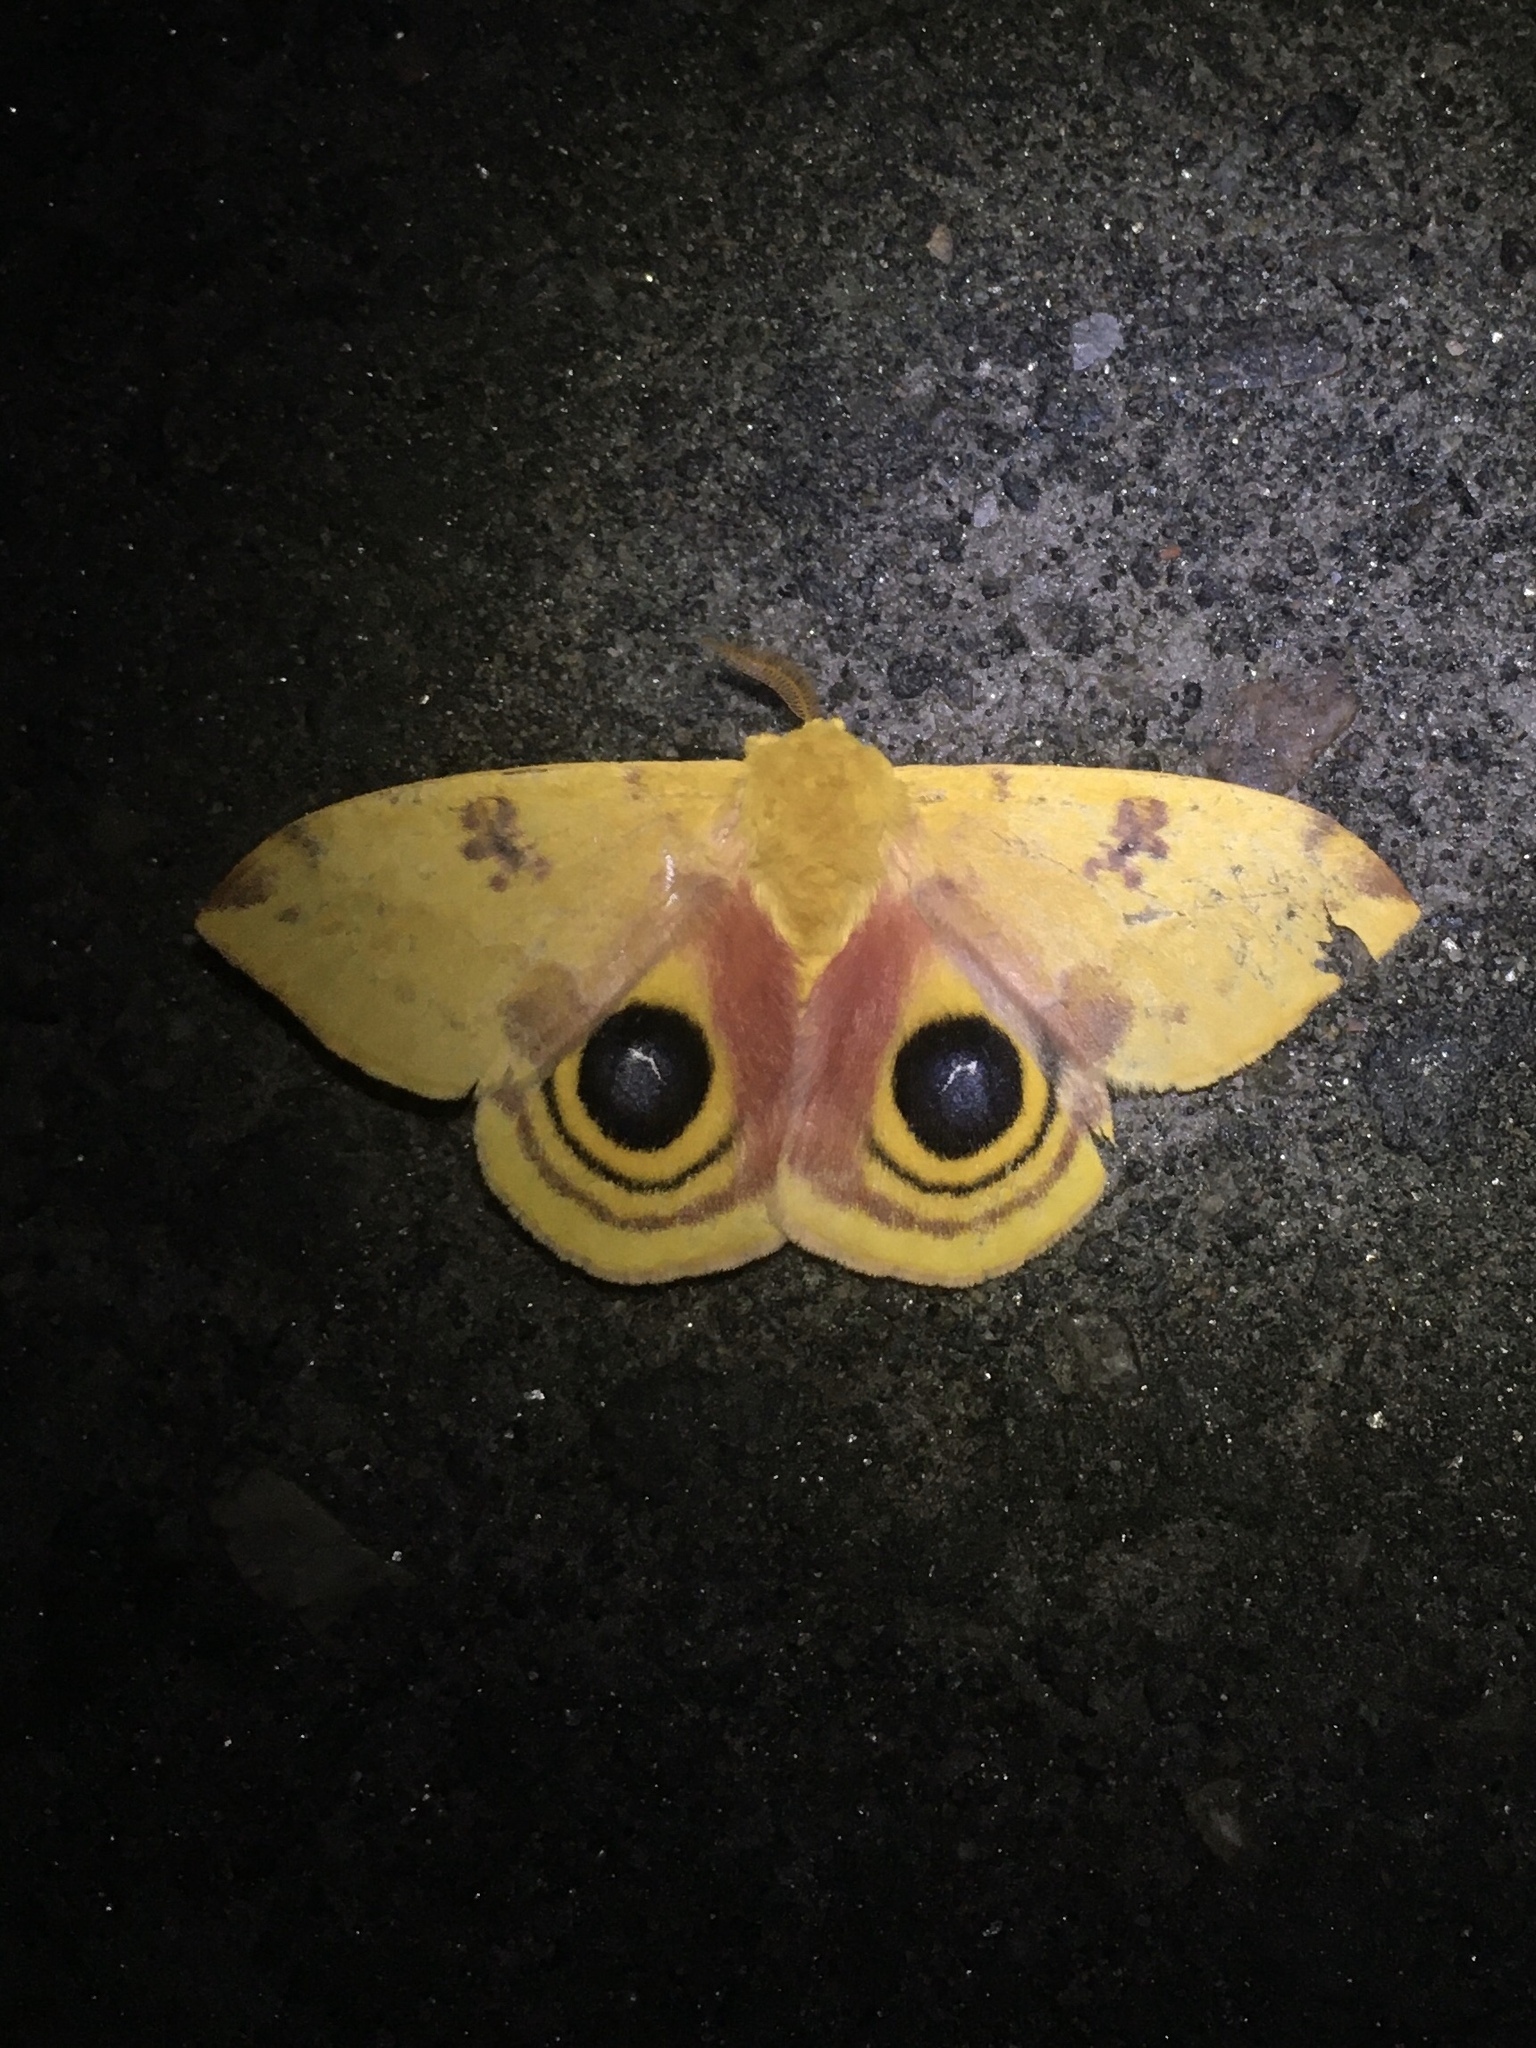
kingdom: Animalia
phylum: Arthropoda
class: Insecta
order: Lepidoptera
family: Saturniidae
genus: Automeris
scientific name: Automeris io
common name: Io moth
